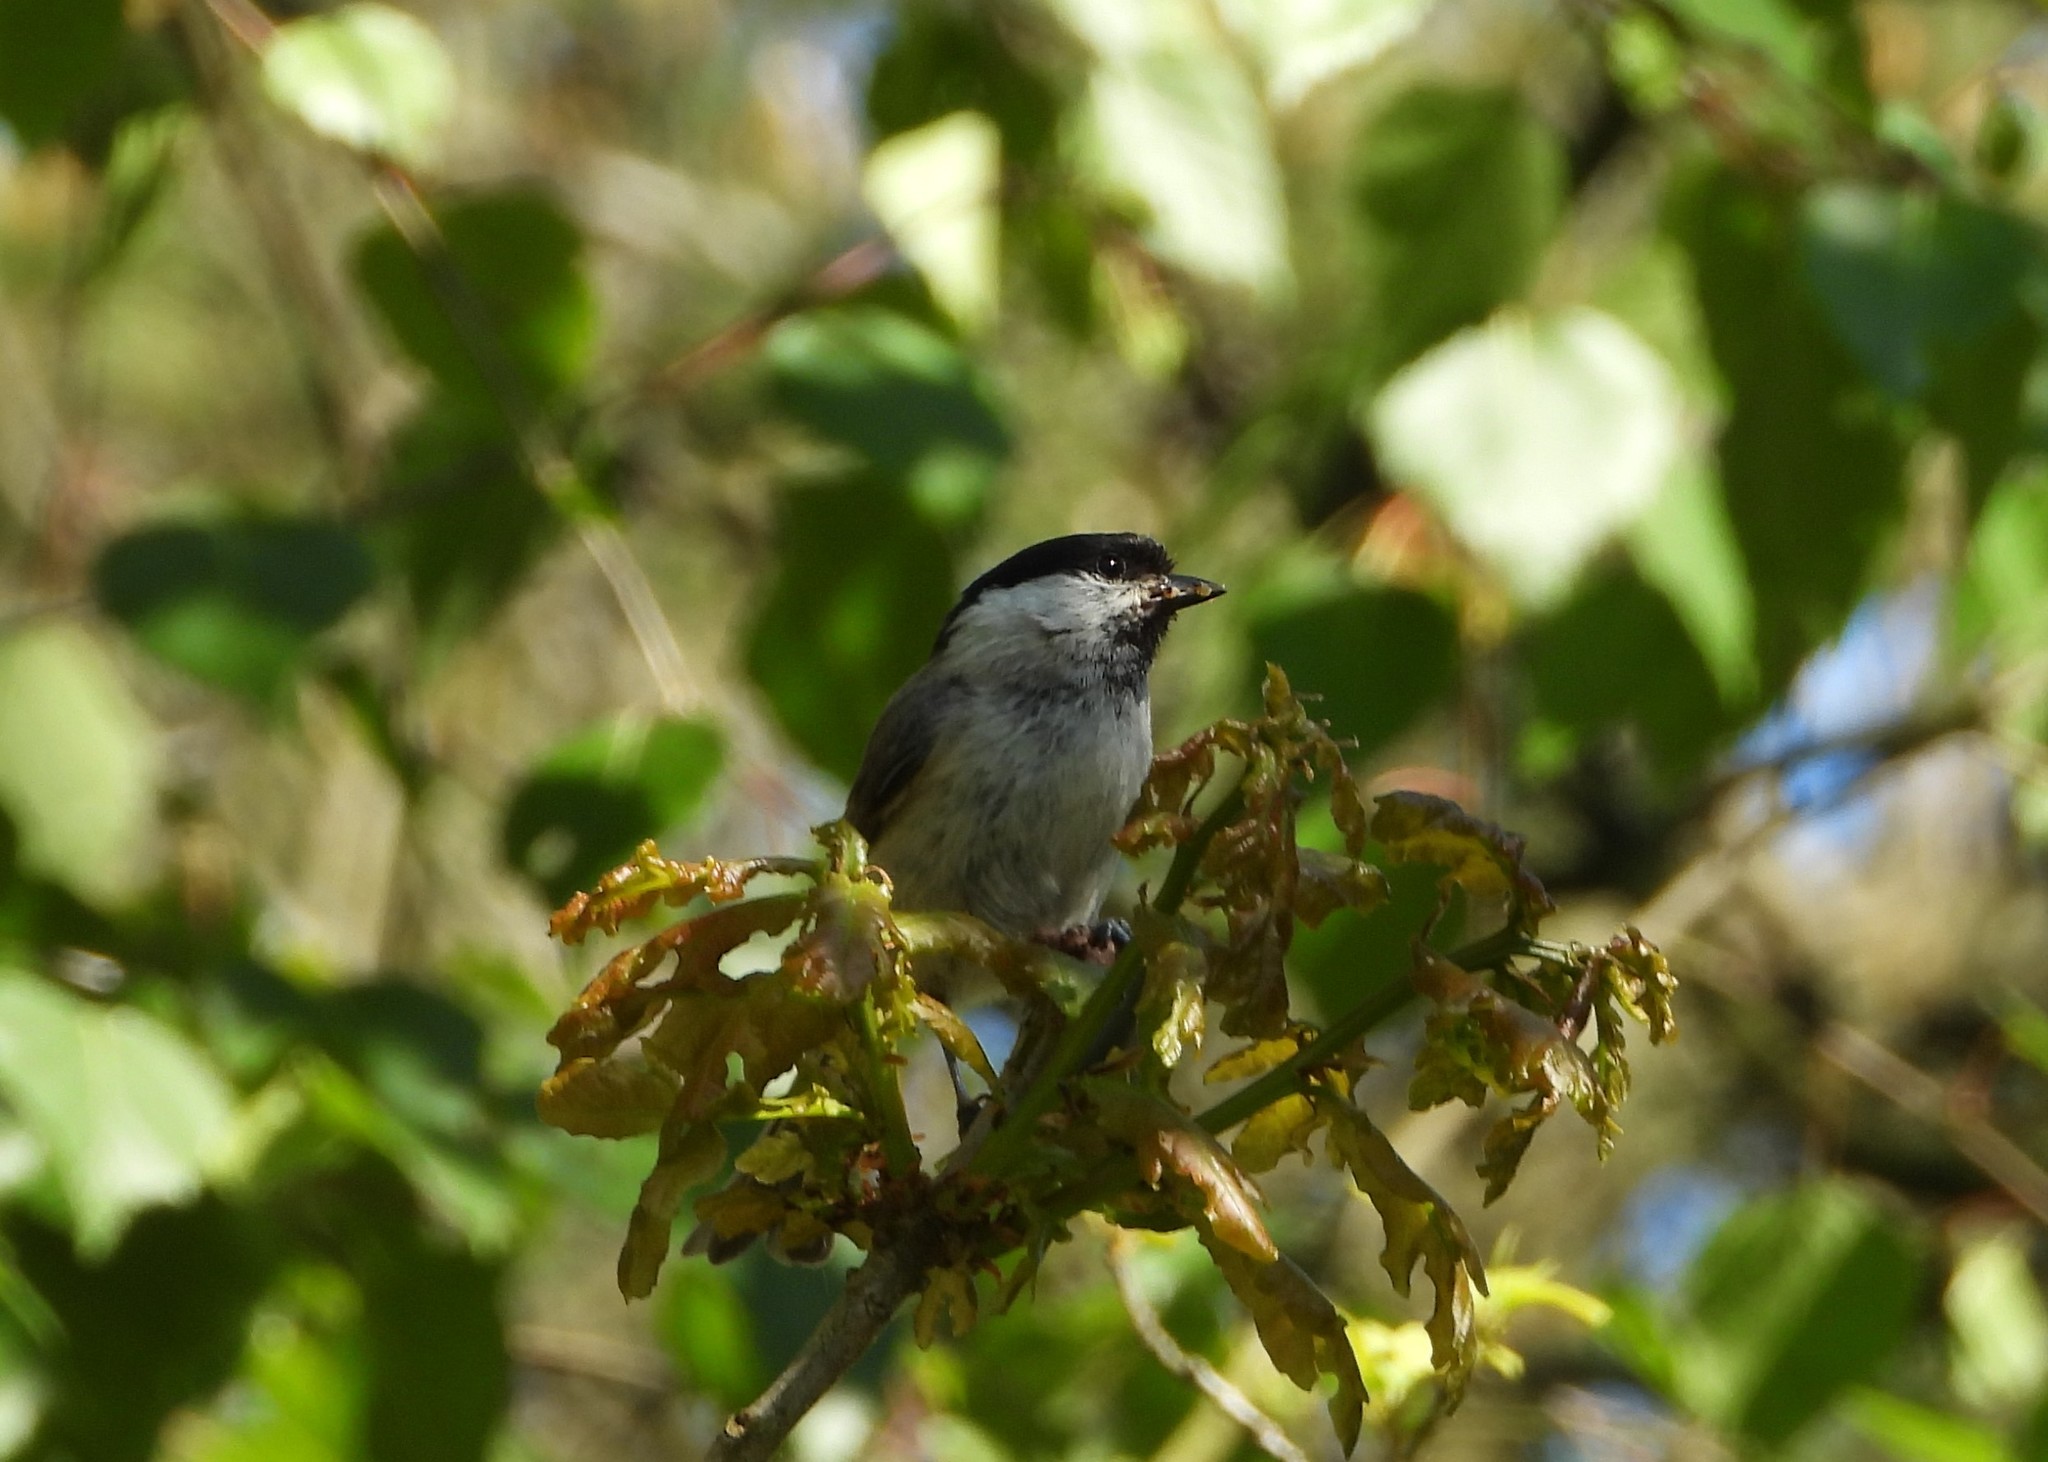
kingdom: Animalia
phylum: Chordata
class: Aves
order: Passeriformes
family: Paridae
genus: Poecile
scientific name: Poecile palustris
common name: Marsh tit
